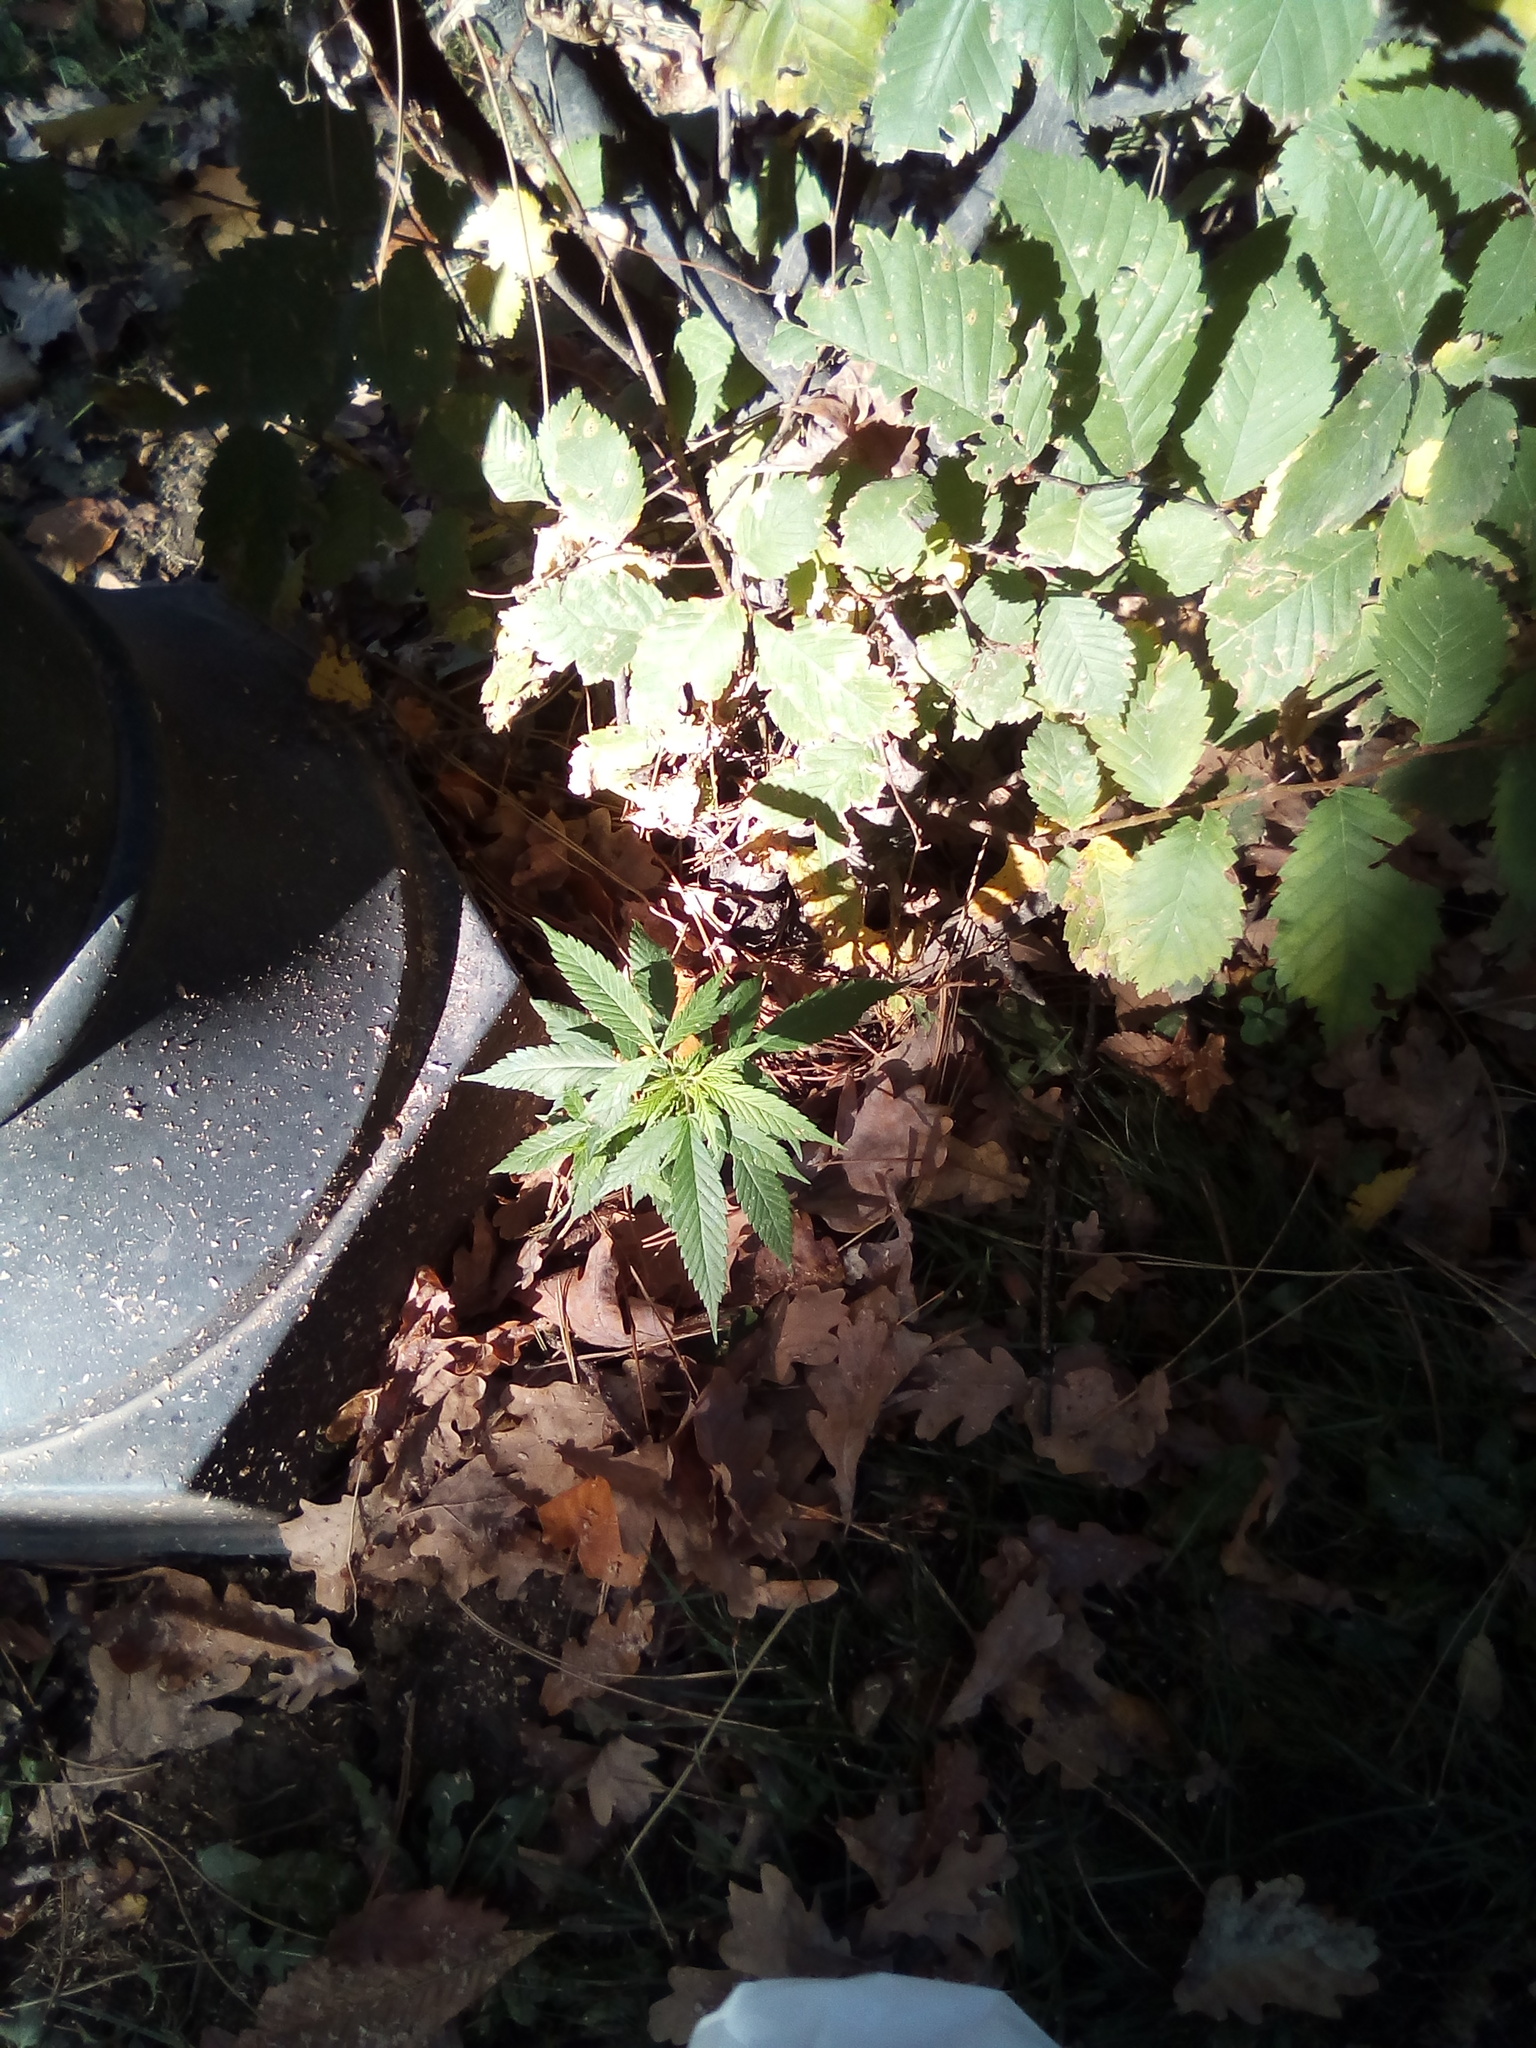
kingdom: Plantae
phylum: Tracheophyta
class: Magnoliopsida
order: Rosales
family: Cannabaceae
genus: Cannabis
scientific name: Cannabis sativa
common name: Hemp
